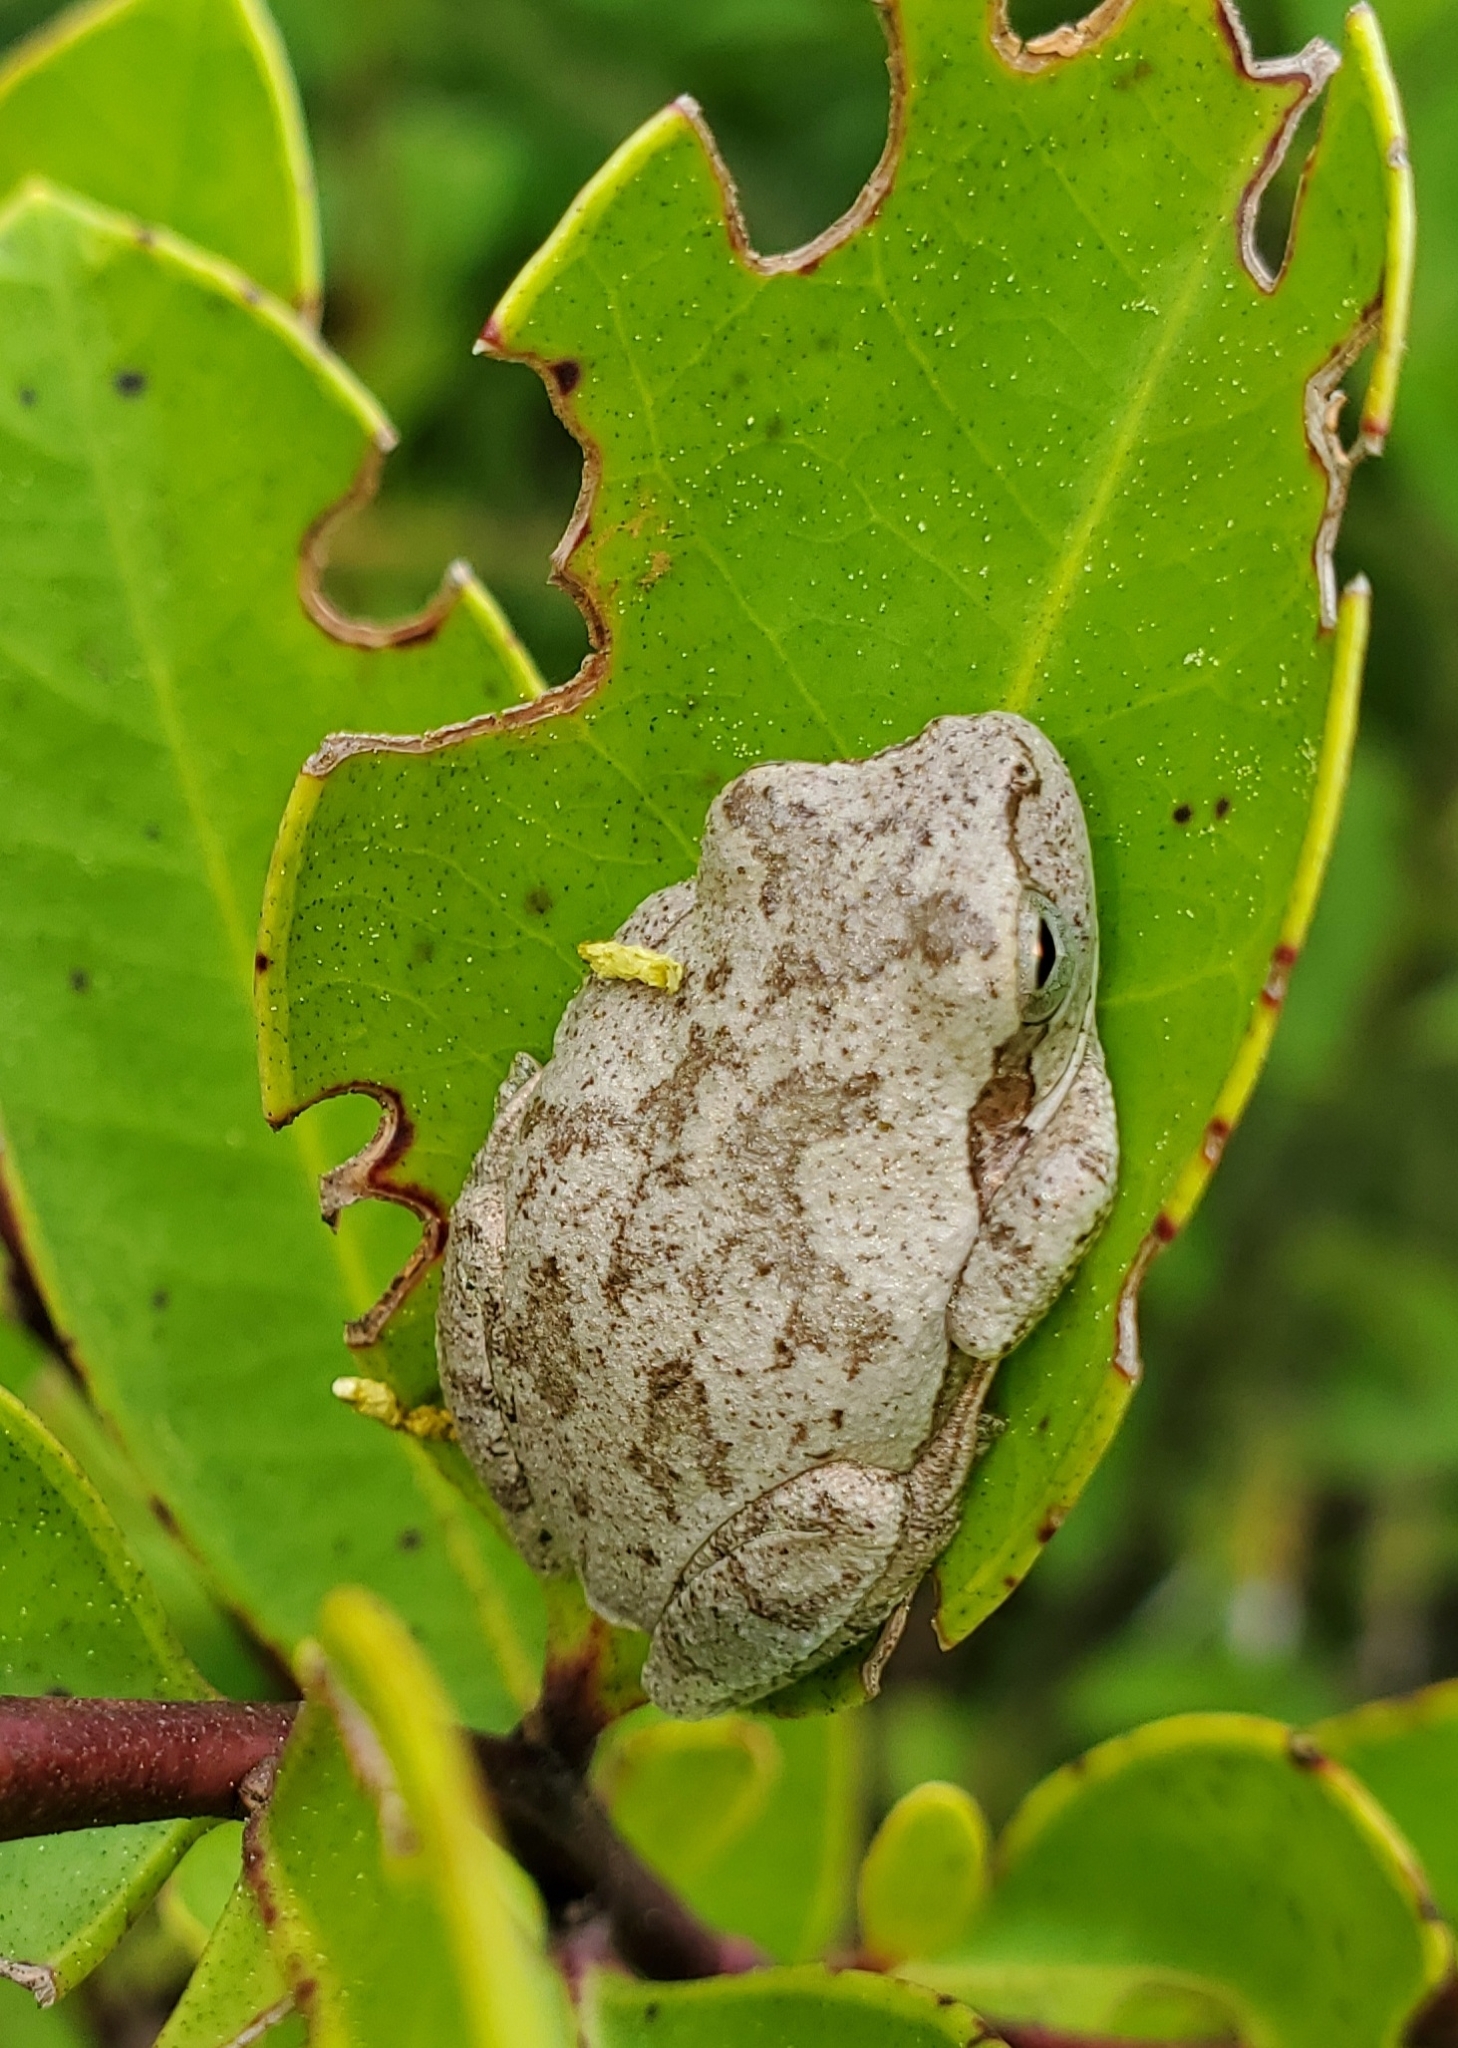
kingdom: Animalia
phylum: Chordata
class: Amphibia
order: Anura
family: Hylidae
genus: Hyla
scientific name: Hyla femoralis
